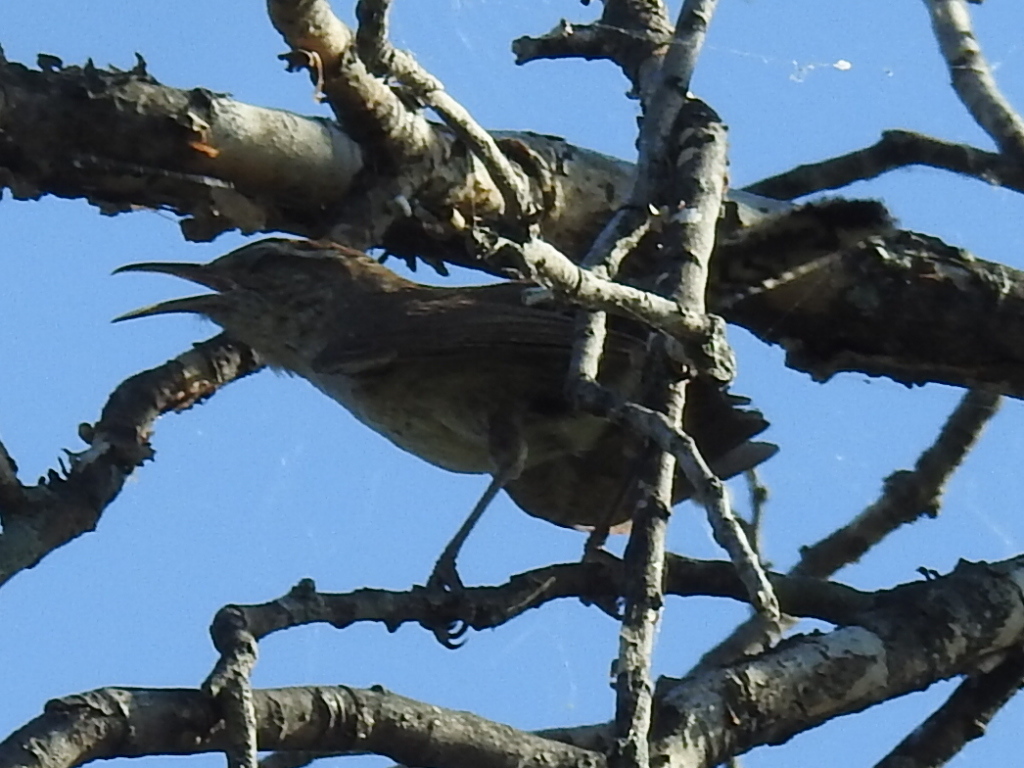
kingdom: Animalia
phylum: Chordata
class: Aves
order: Passeriformes
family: Troglodytidae
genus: Thryomanes
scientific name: Thryomanes bewickii
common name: Bewick's wren
